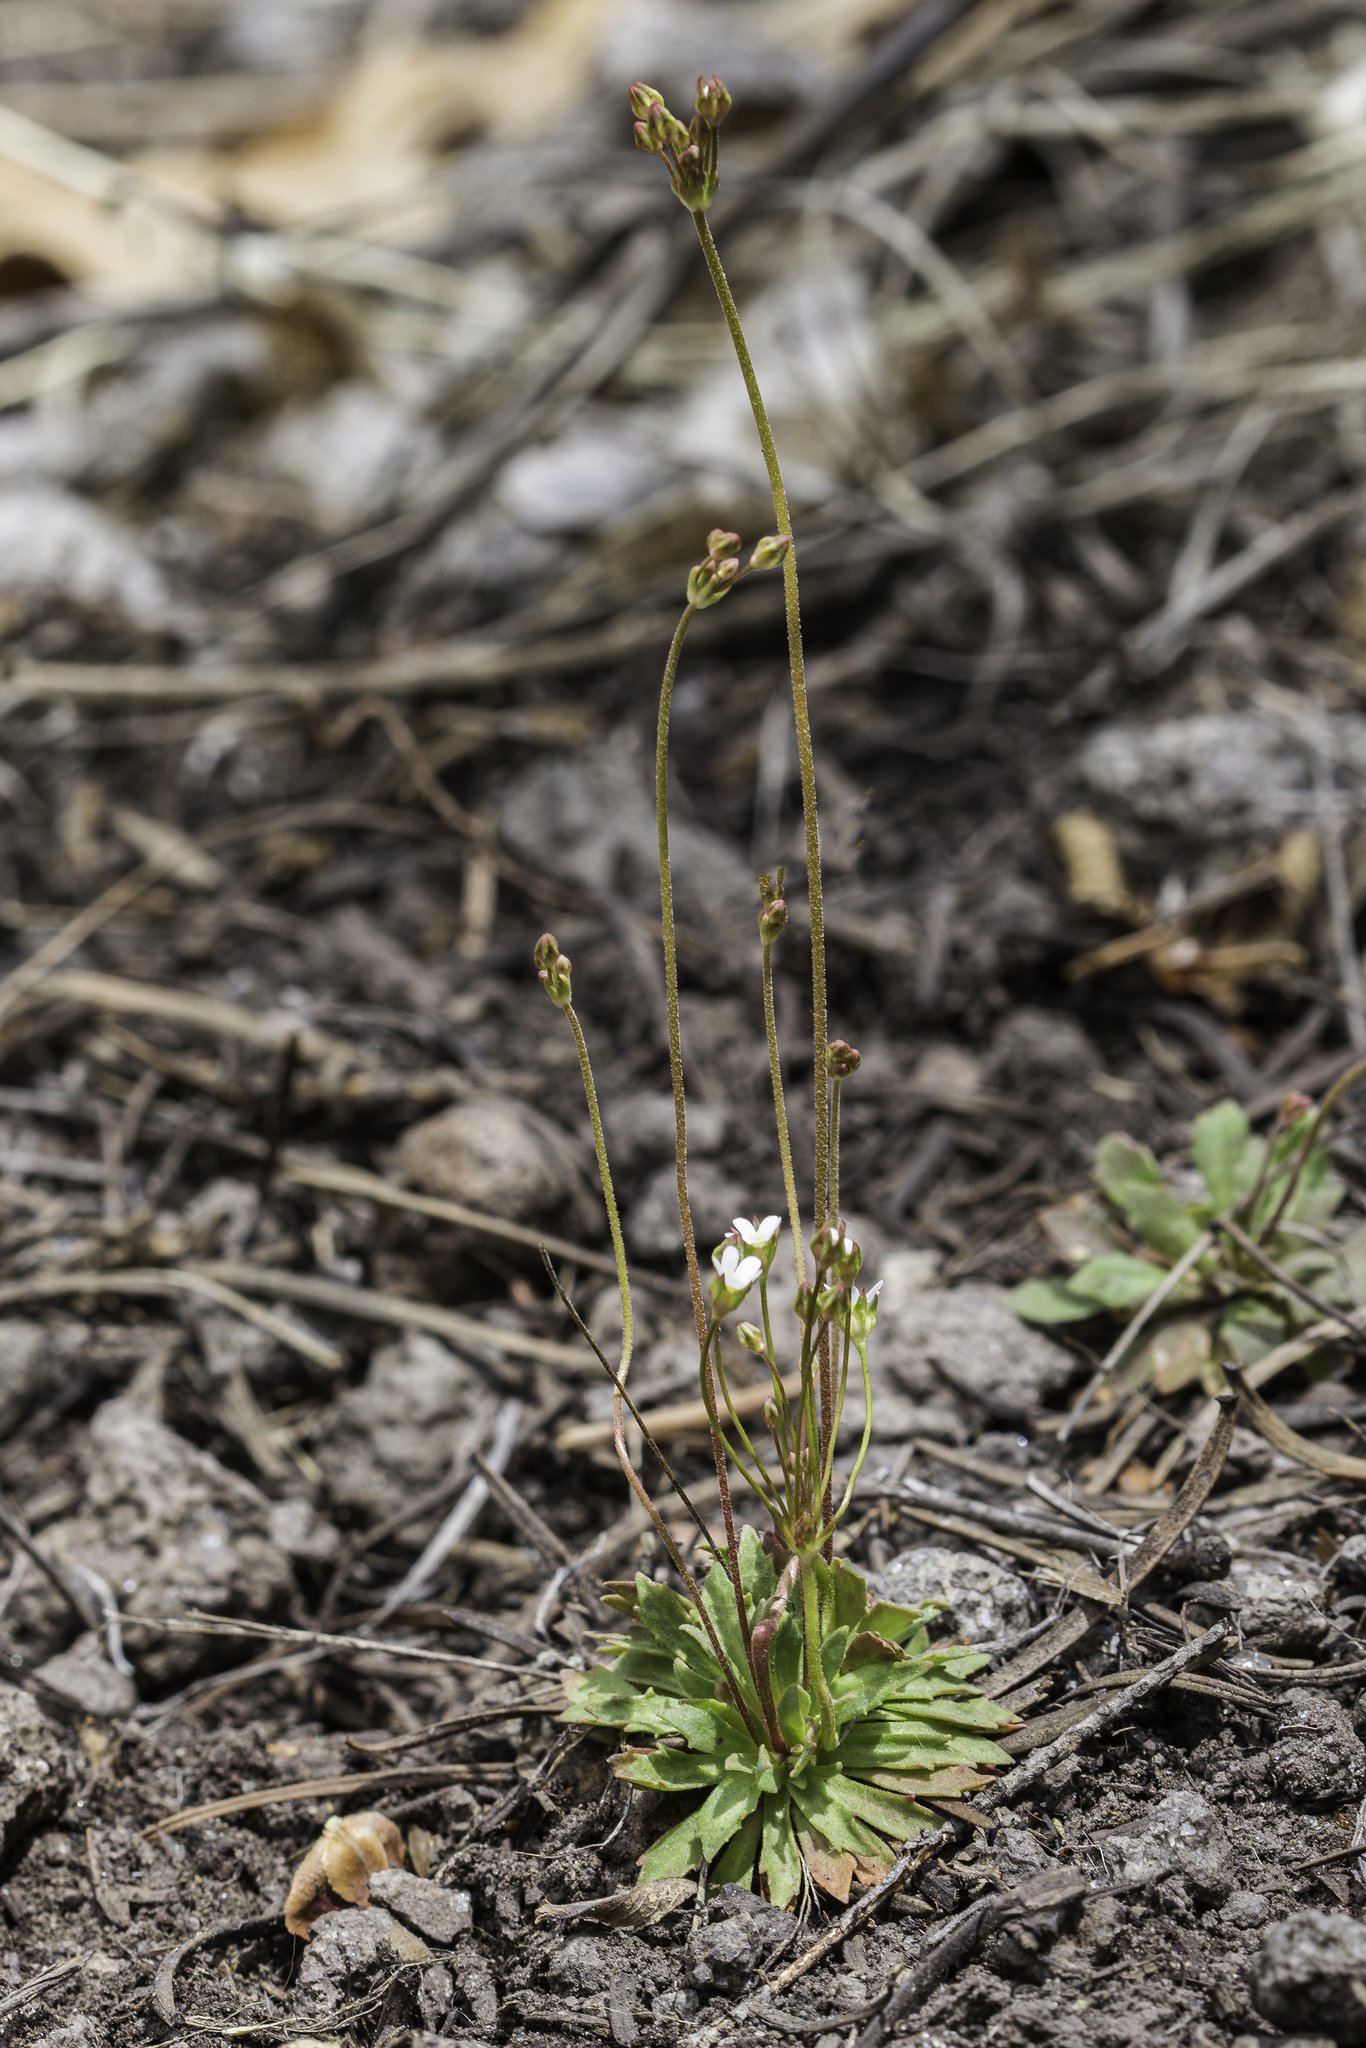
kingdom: Plantae
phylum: Tracheophyta
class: Magnoliopsida
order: Ericales
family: Primulaceae
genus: Androsace
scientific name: Androsace septentrionalis
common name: Hairy northern fairy-candelabra
